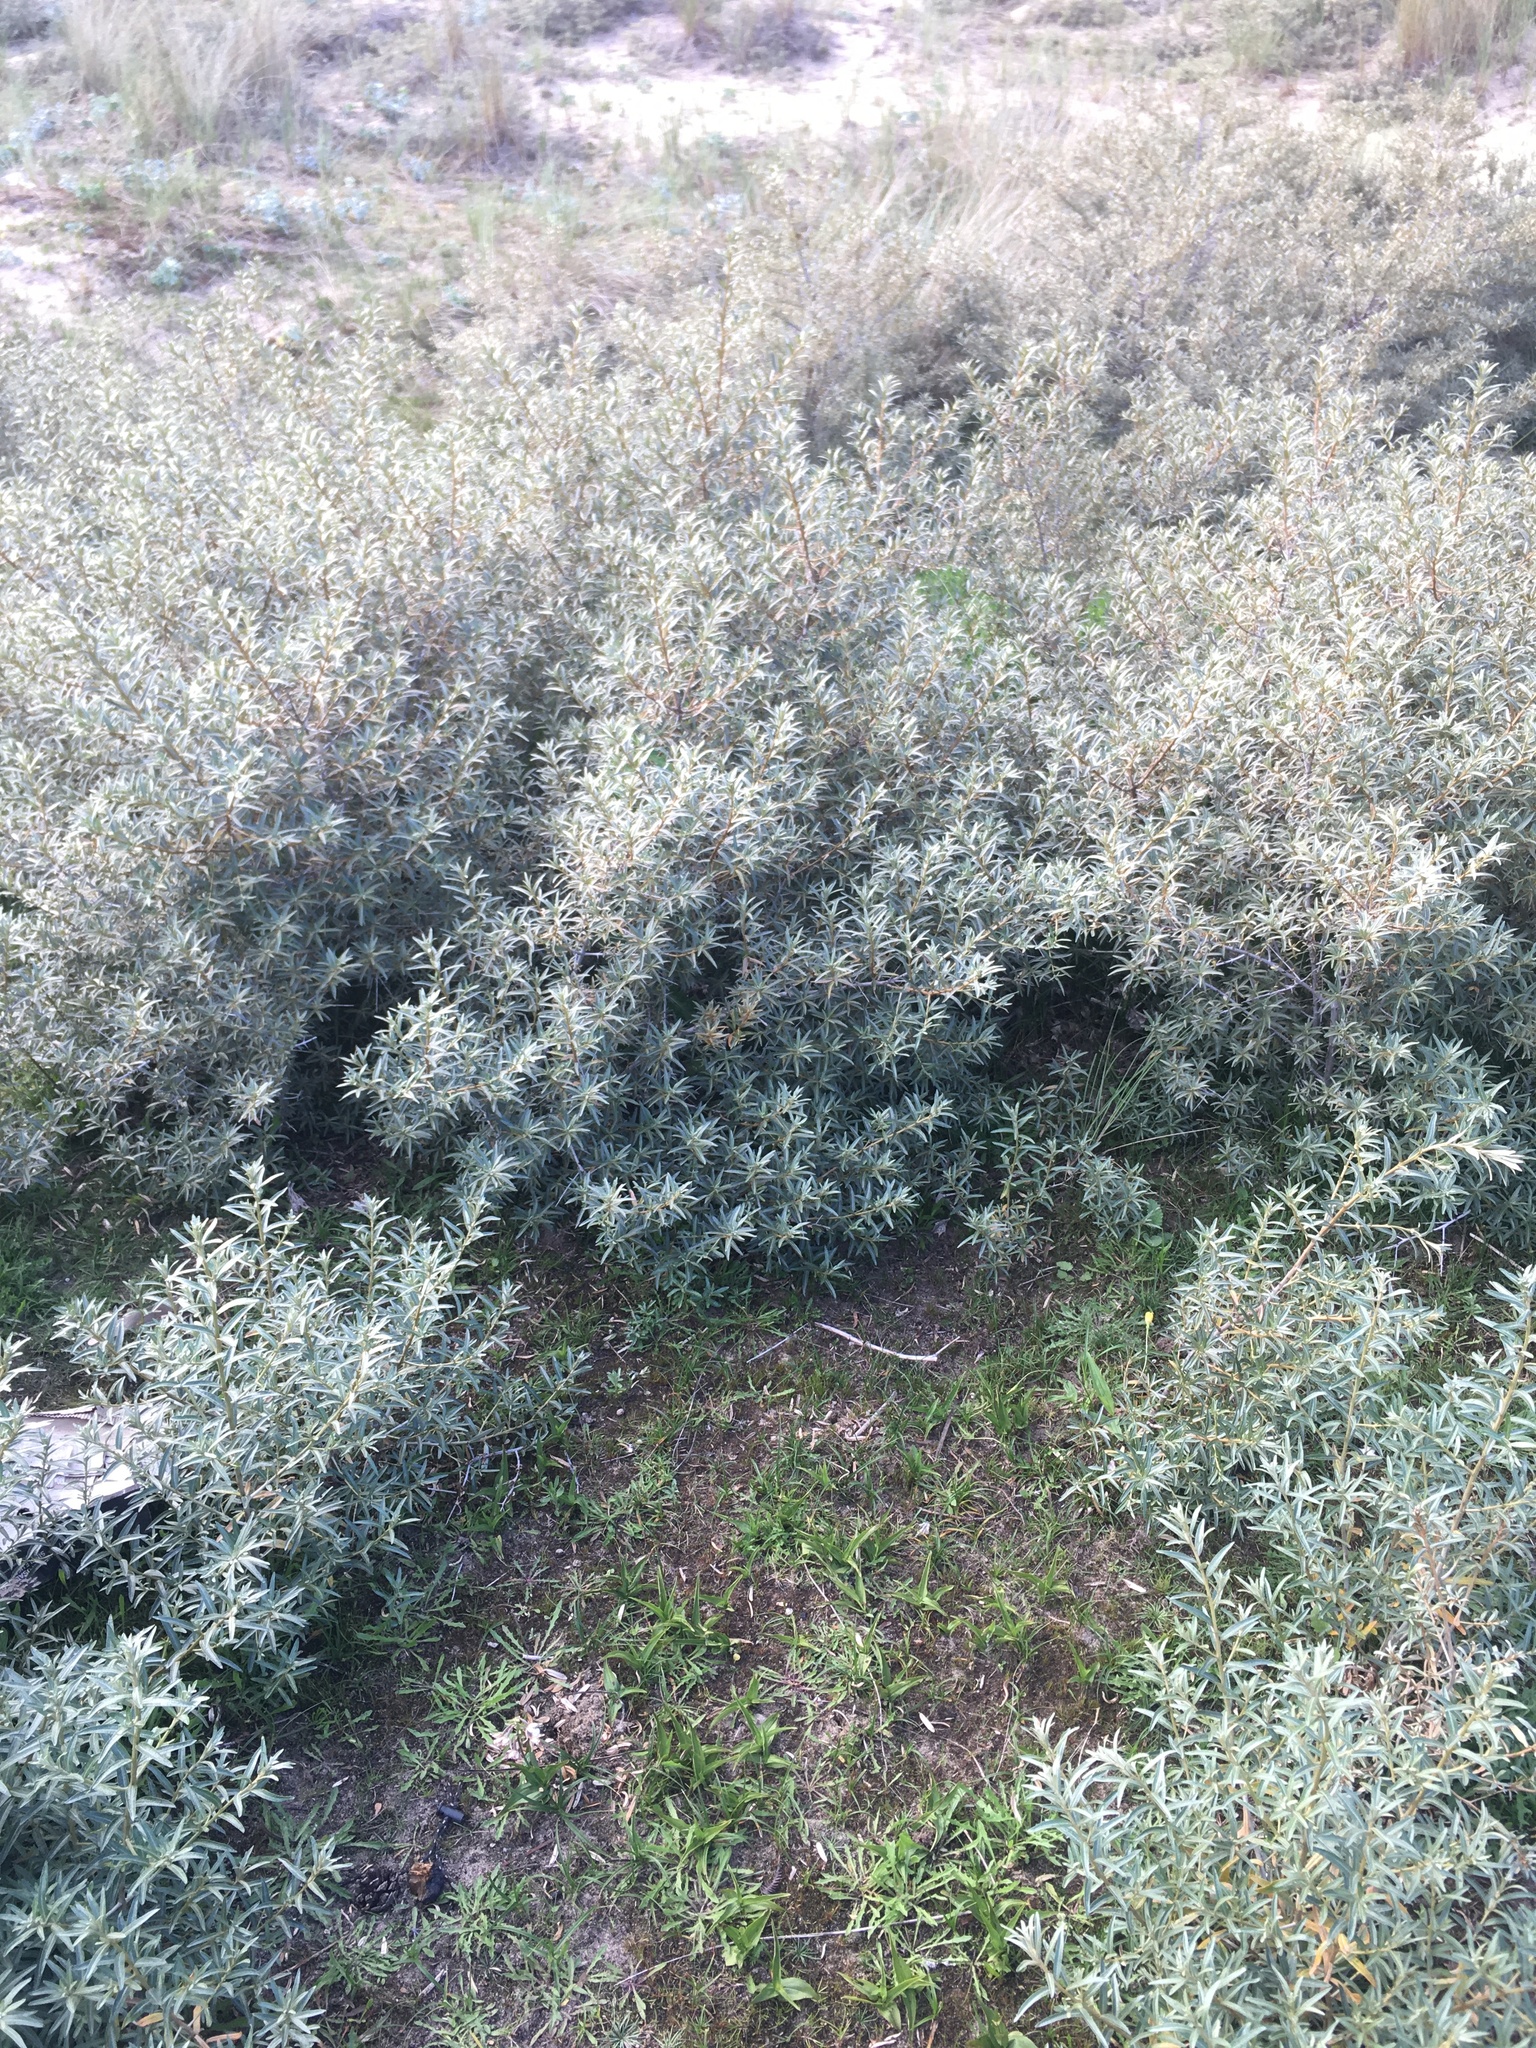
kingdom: Plantae
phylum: Tracheophyta
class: Liliopsida
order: Asparagales
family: Orchidaceae
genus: Epipactis
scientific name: Epipactis palustris
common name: Marsh helleborine
